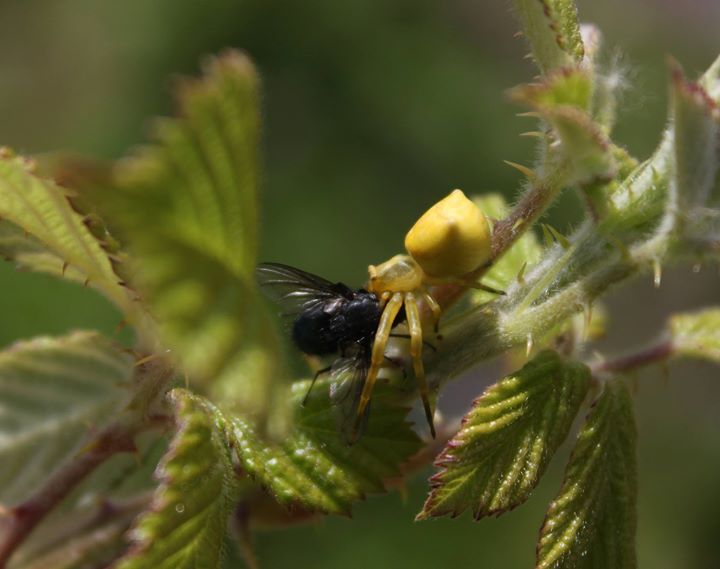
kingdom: Animalia
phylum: Arthropoda
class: Arachnida
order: Araneae
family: Thomisidae
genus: Thomisus
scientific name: Thomisus onustus
